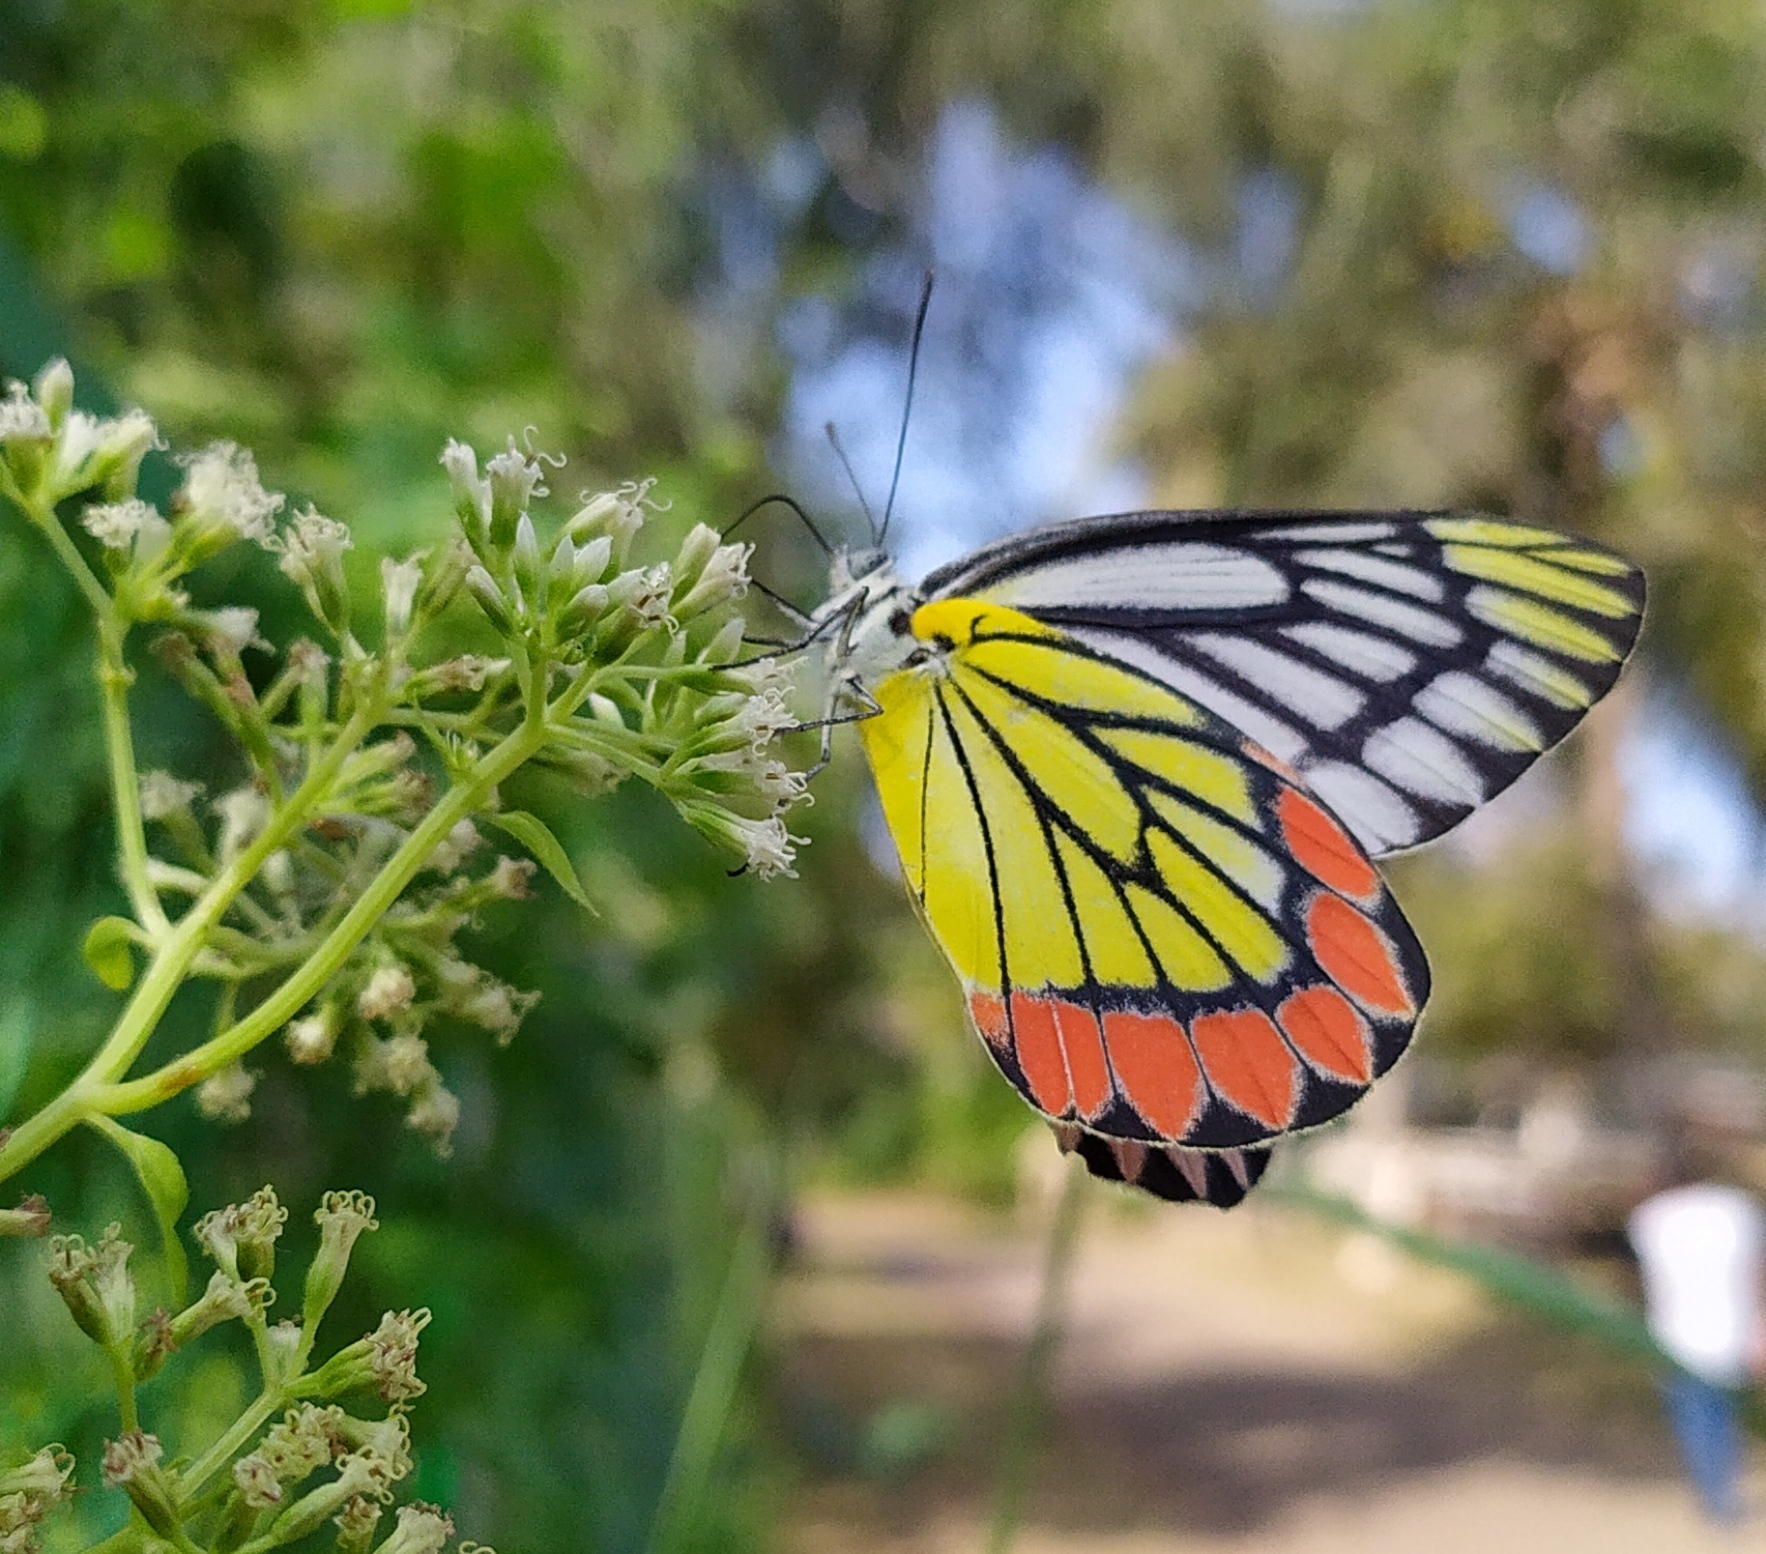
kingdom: Animalia
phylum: Arthropoda
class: Insecta
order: Lepidoptera
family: Pieridae
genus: Delias
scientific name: Delias eucharis
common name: Common jezebel
